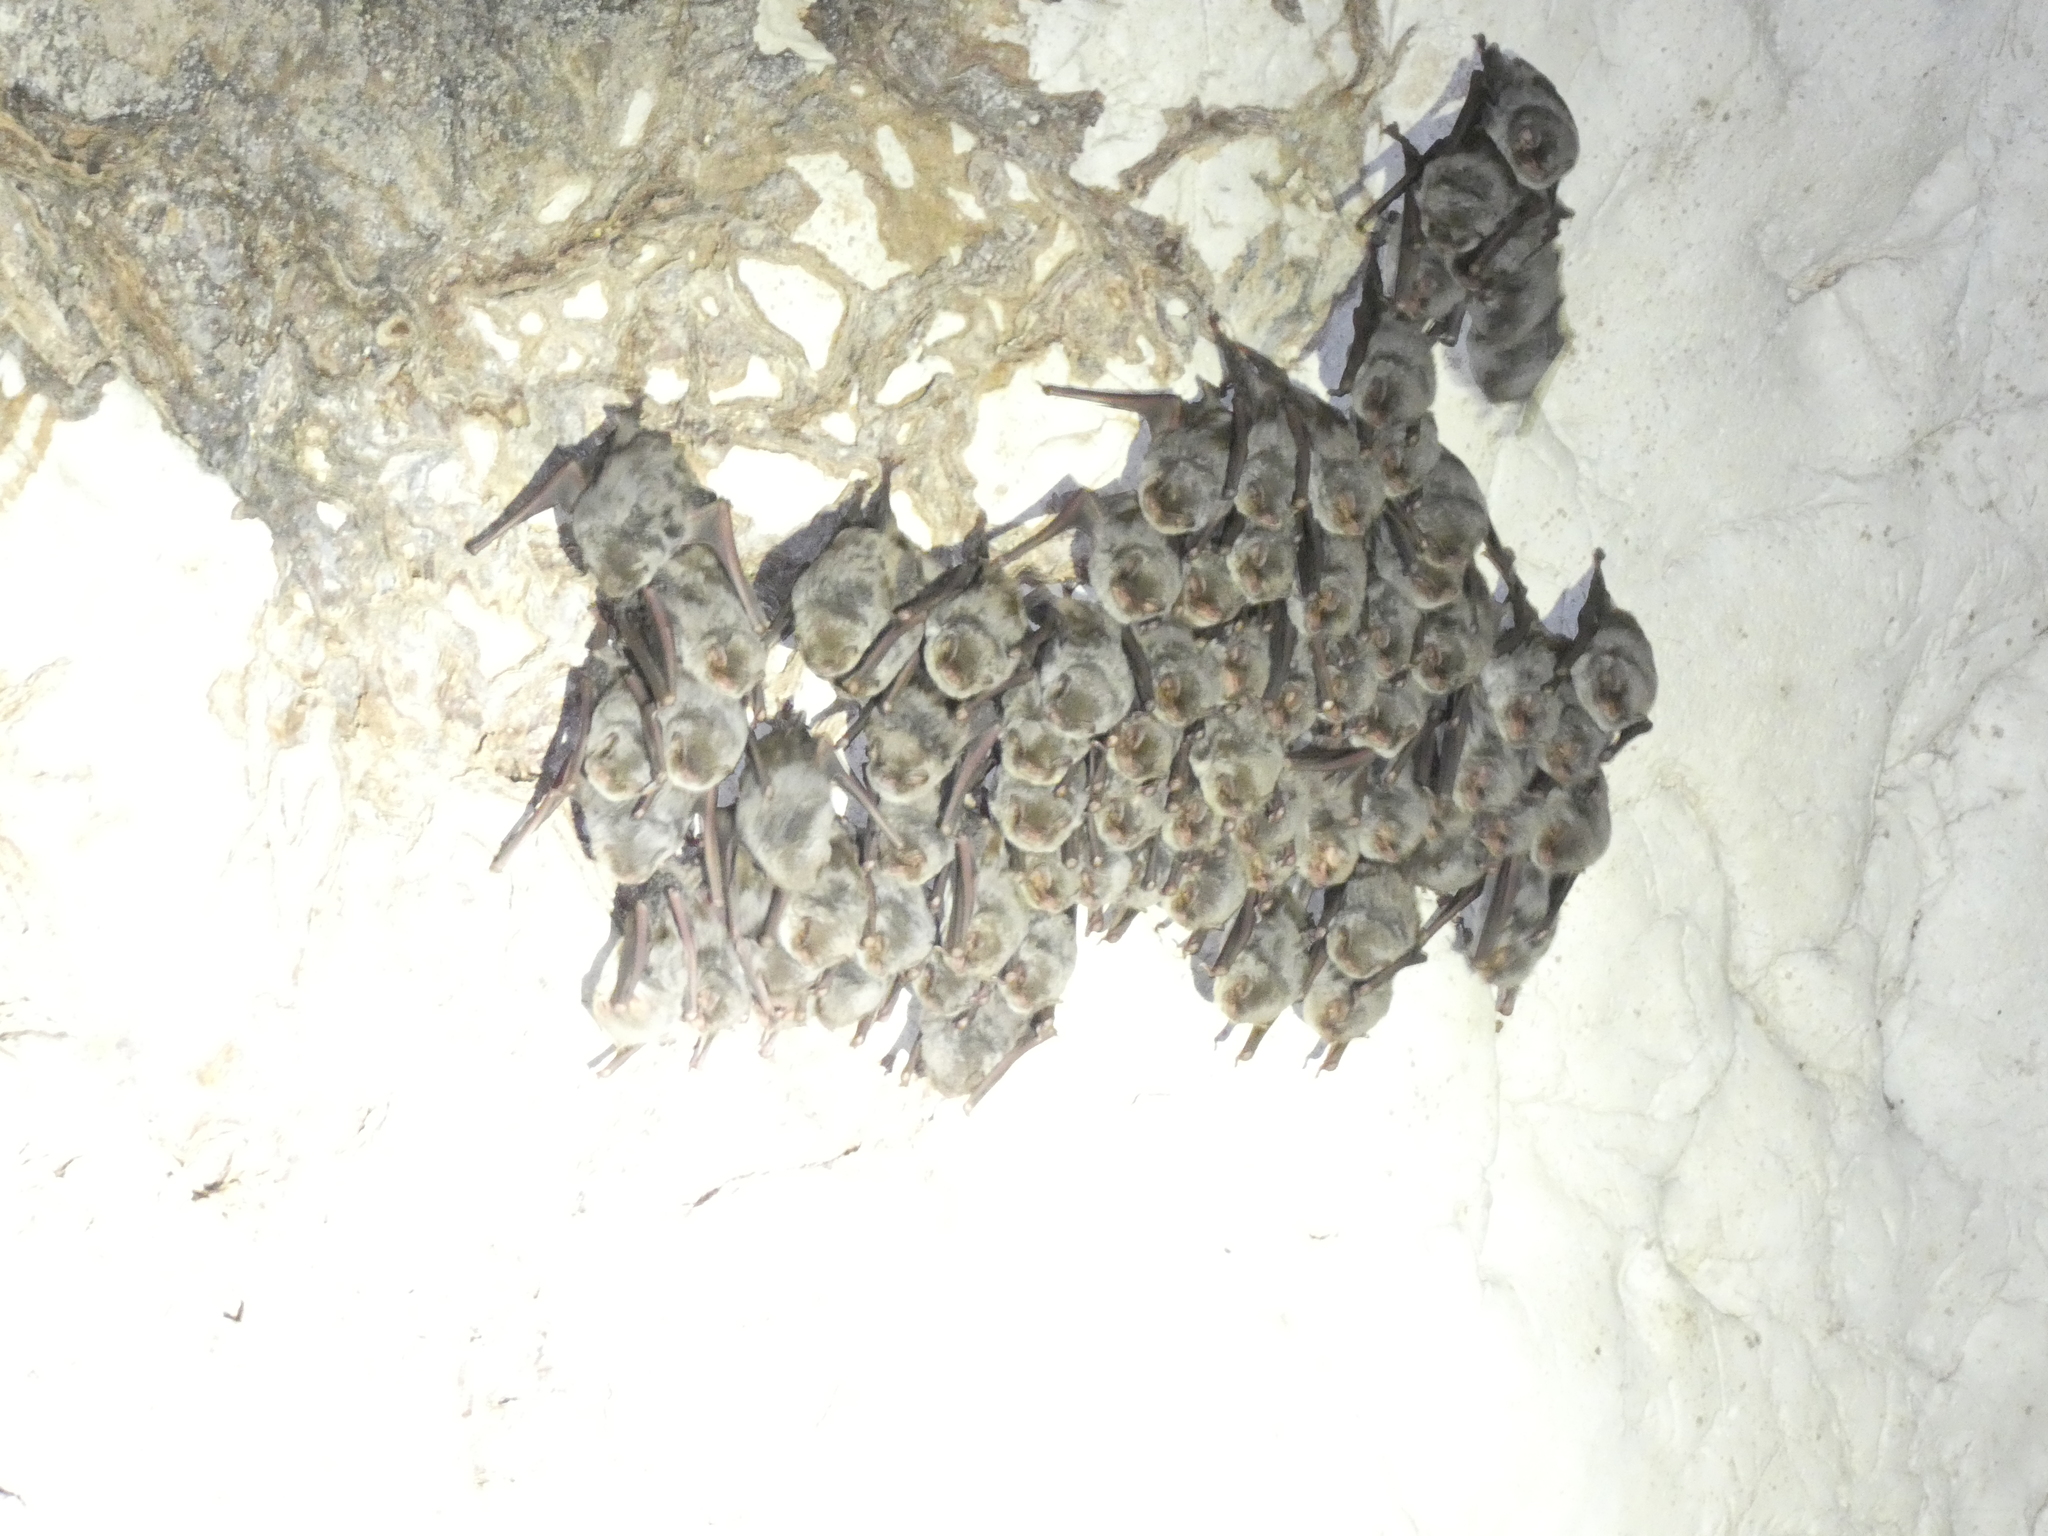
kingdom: Animalia
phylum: Chordata
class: Mammalia
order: Chiroptera
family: Miniopteridae
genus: Miniopterus
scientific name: Miniopterus schreibersii
